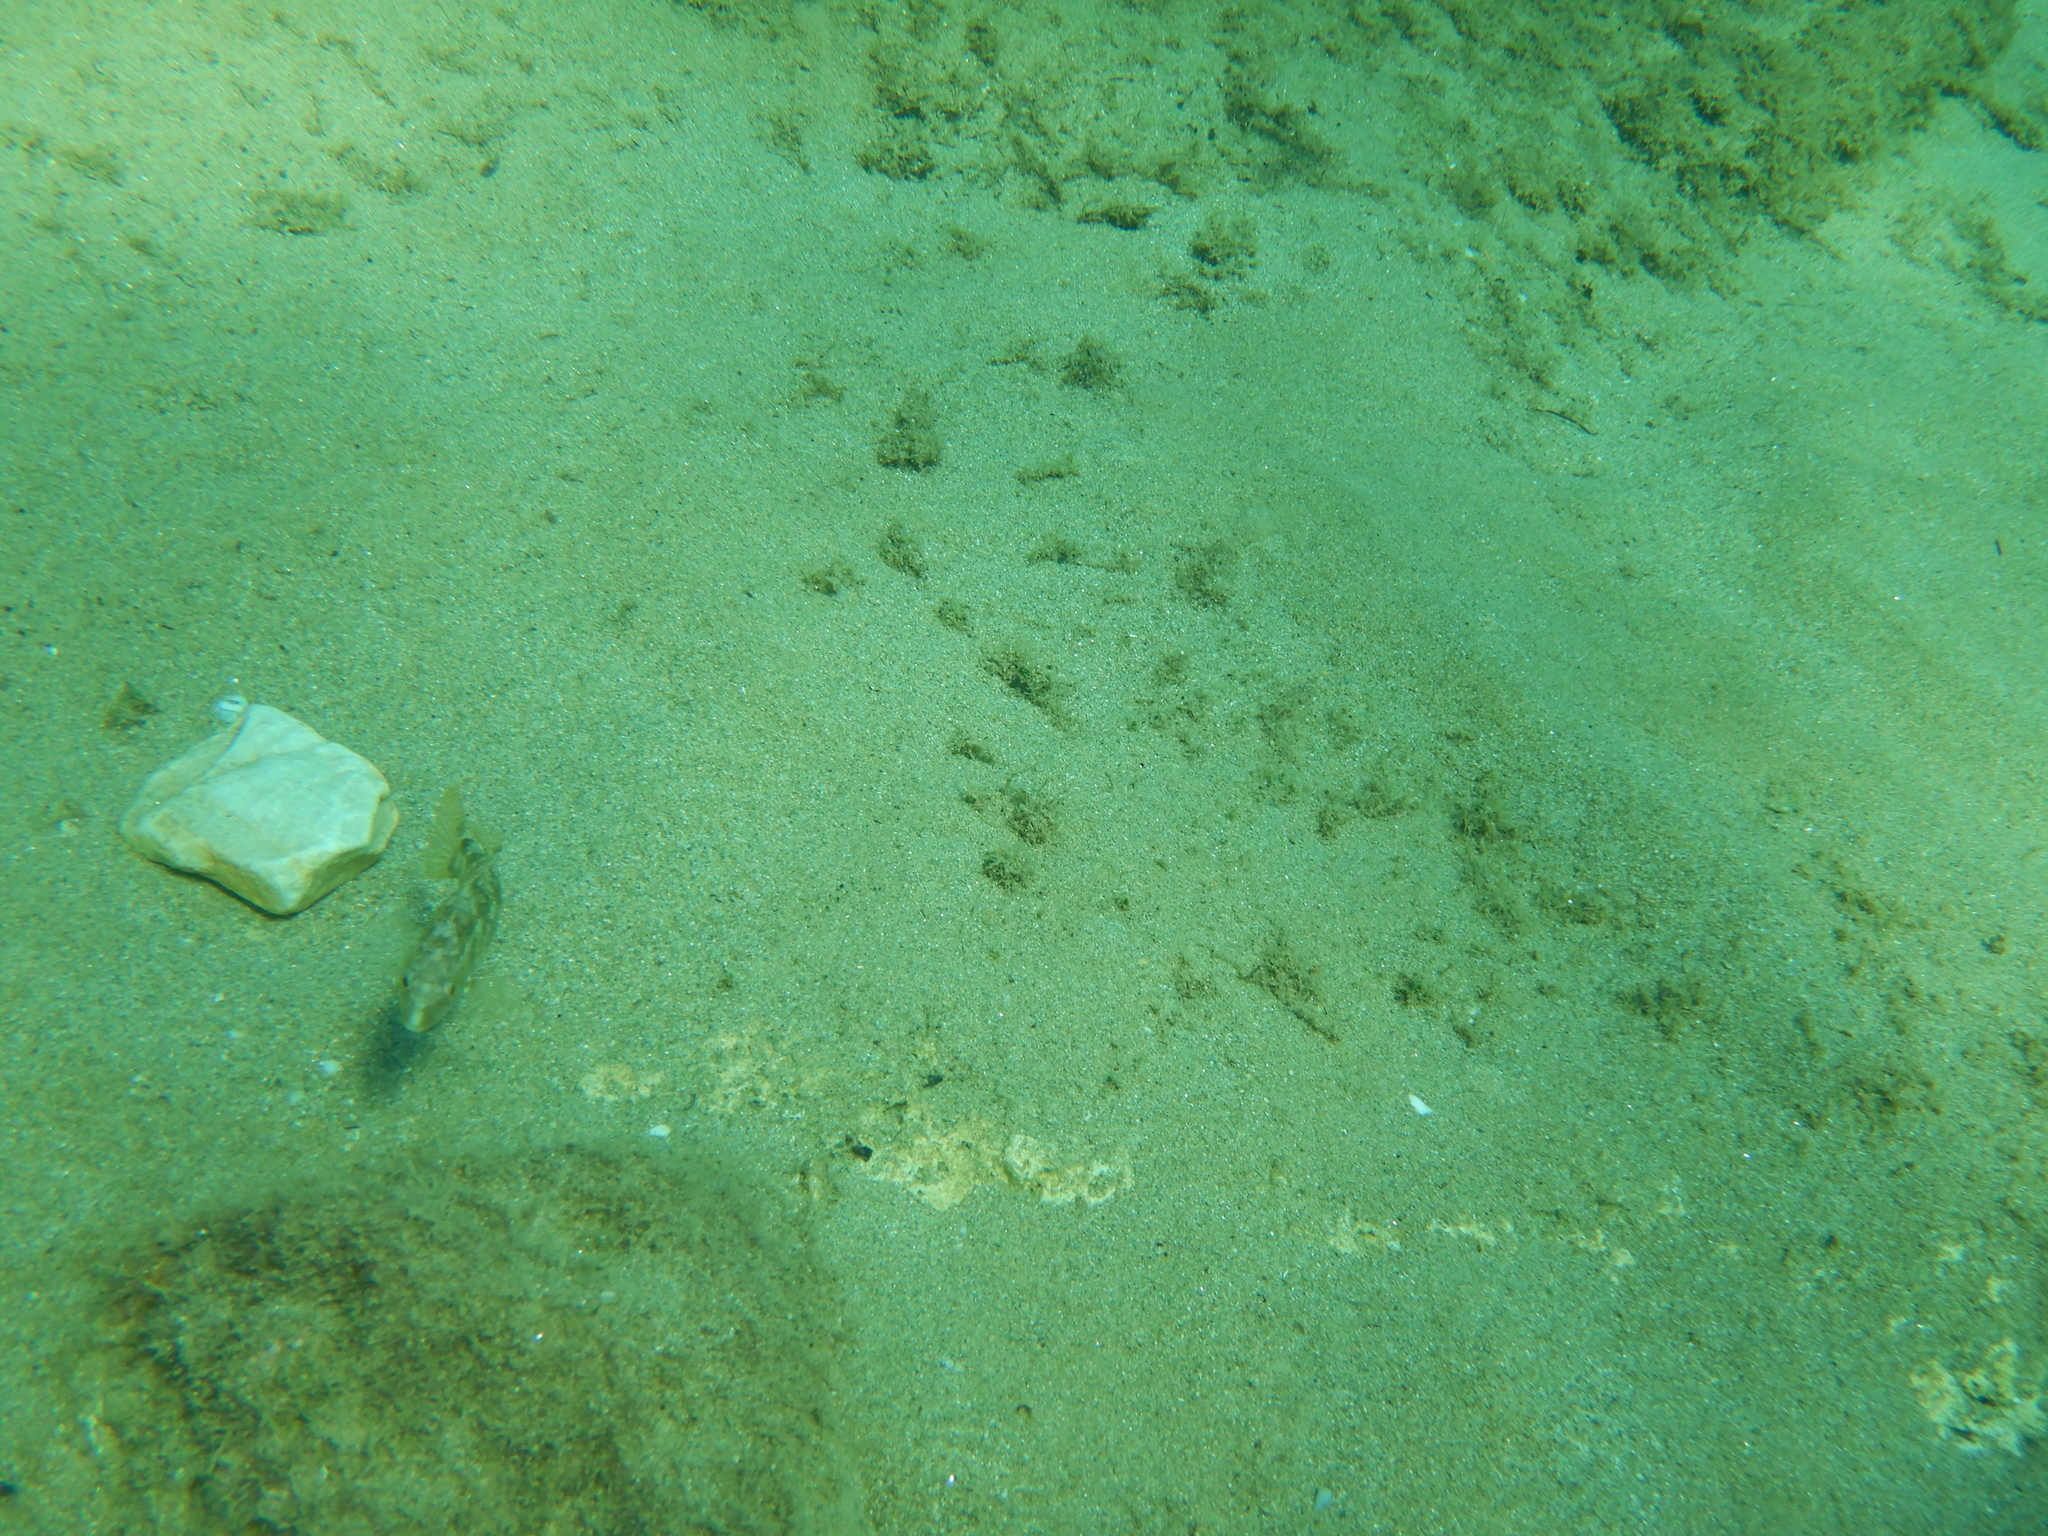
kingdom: Animalia
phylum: Chordata
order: Perciformes
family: Labridae
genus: Symphodus
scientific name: Symphodus cinereus
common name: Grey wrasse
